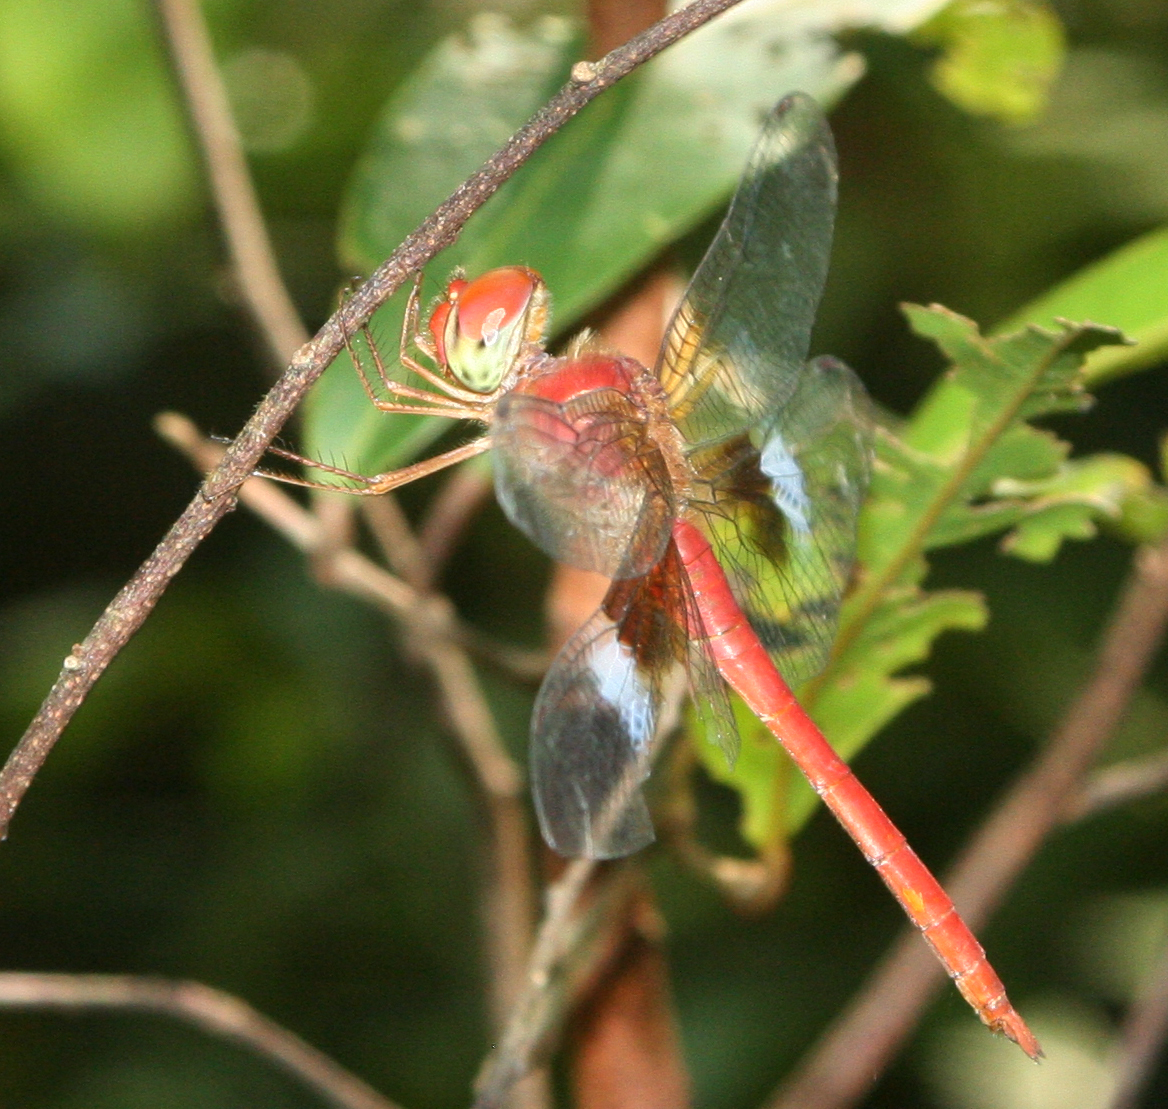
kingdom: Animalia
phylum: Arthropoda
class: Insecta
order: Odonata
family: Libellulidae
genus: Tholymis
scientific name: Tholymis tillarga
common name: Coral-tailed cloud wing
